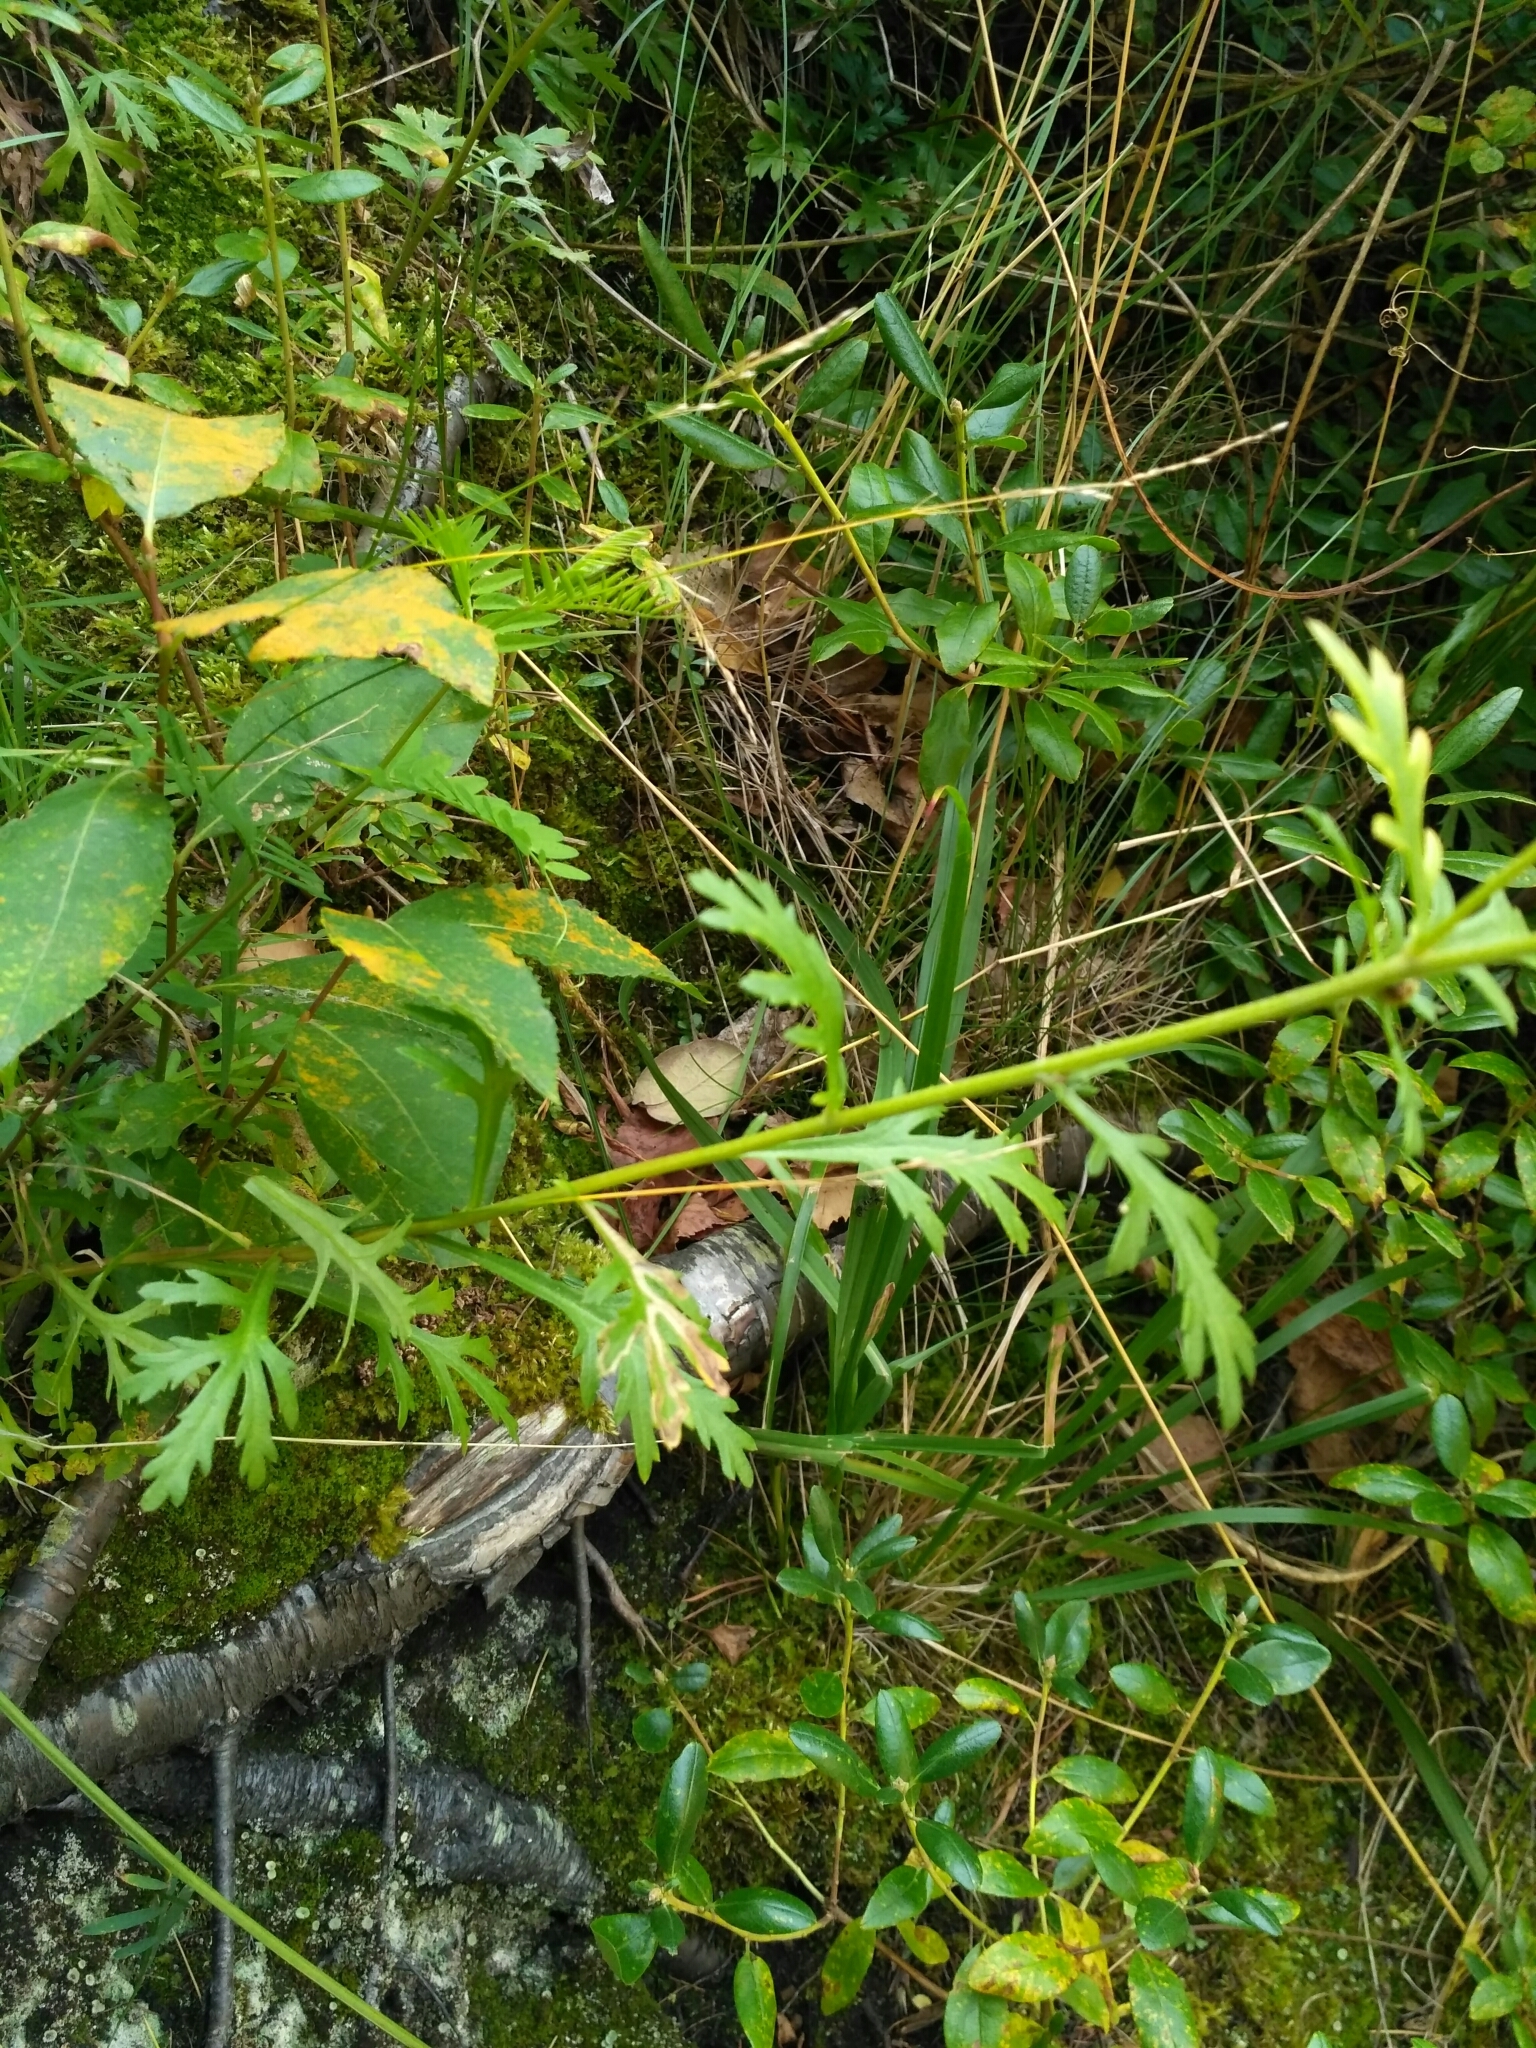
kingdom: Plantae
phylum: Tracheophyta
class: Magnoliopsida
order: Asterales
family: Asteraceae
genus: Chrysanthemum
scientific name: Chrysanthemum zawadzkii
